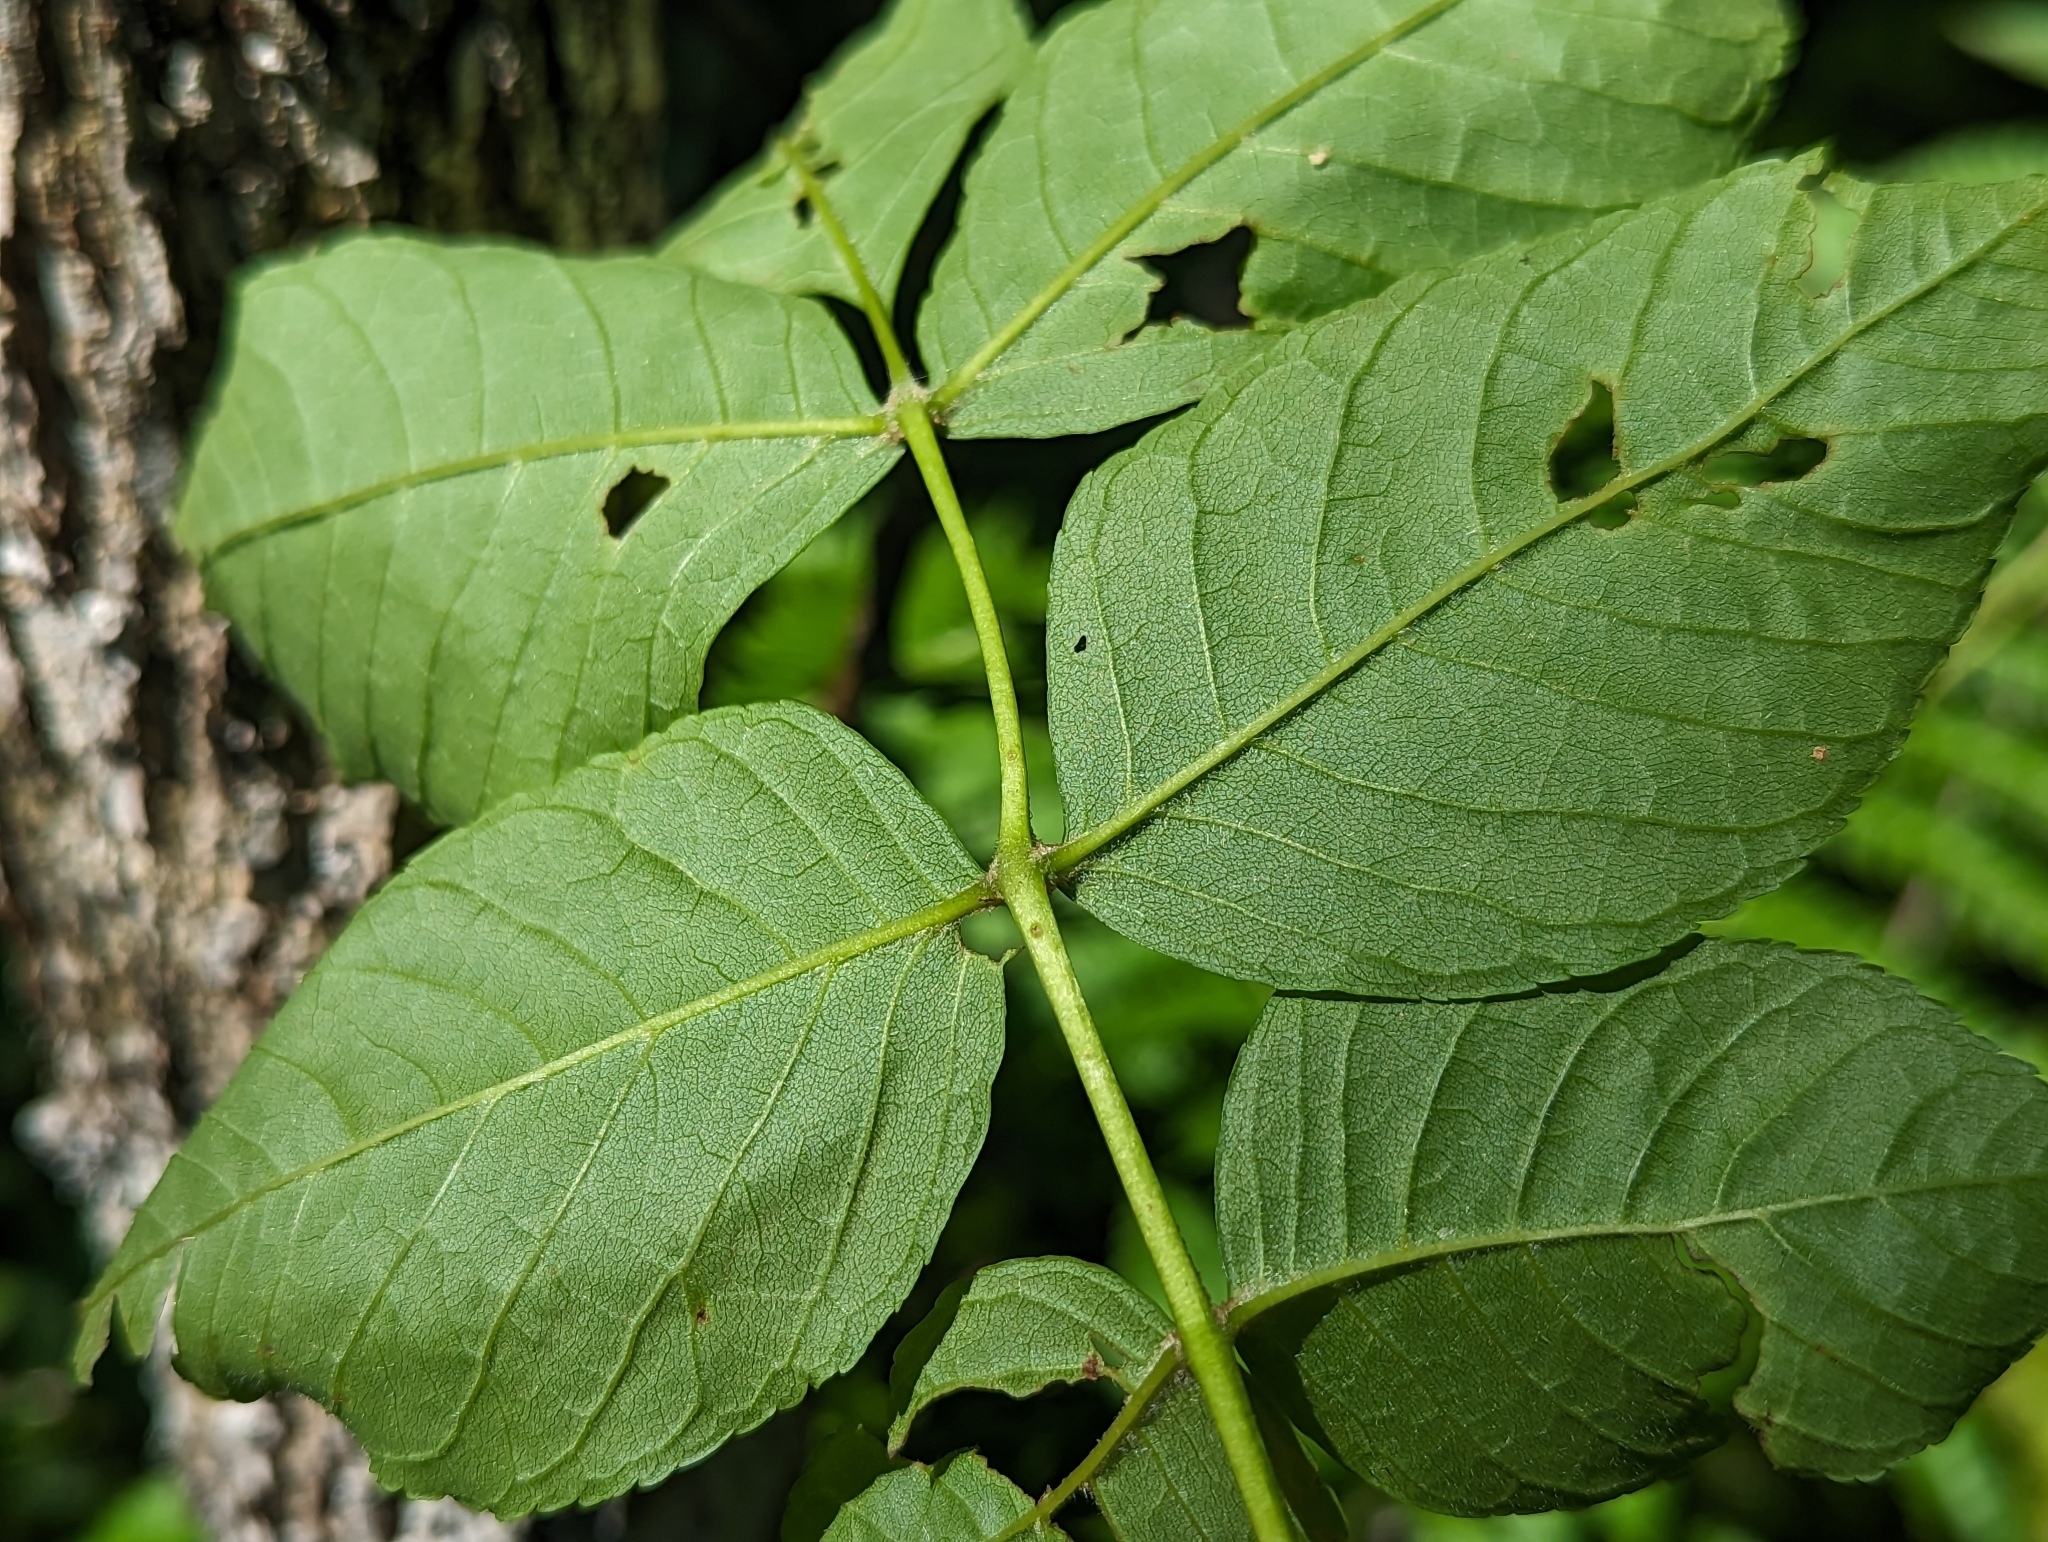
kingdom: Plantae
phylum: Tracheophyta
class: Magnoliopsida
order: Lamiales
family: Oleaceae
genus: Fraxinus
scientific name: Fraxinus nigra
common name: Black ash
